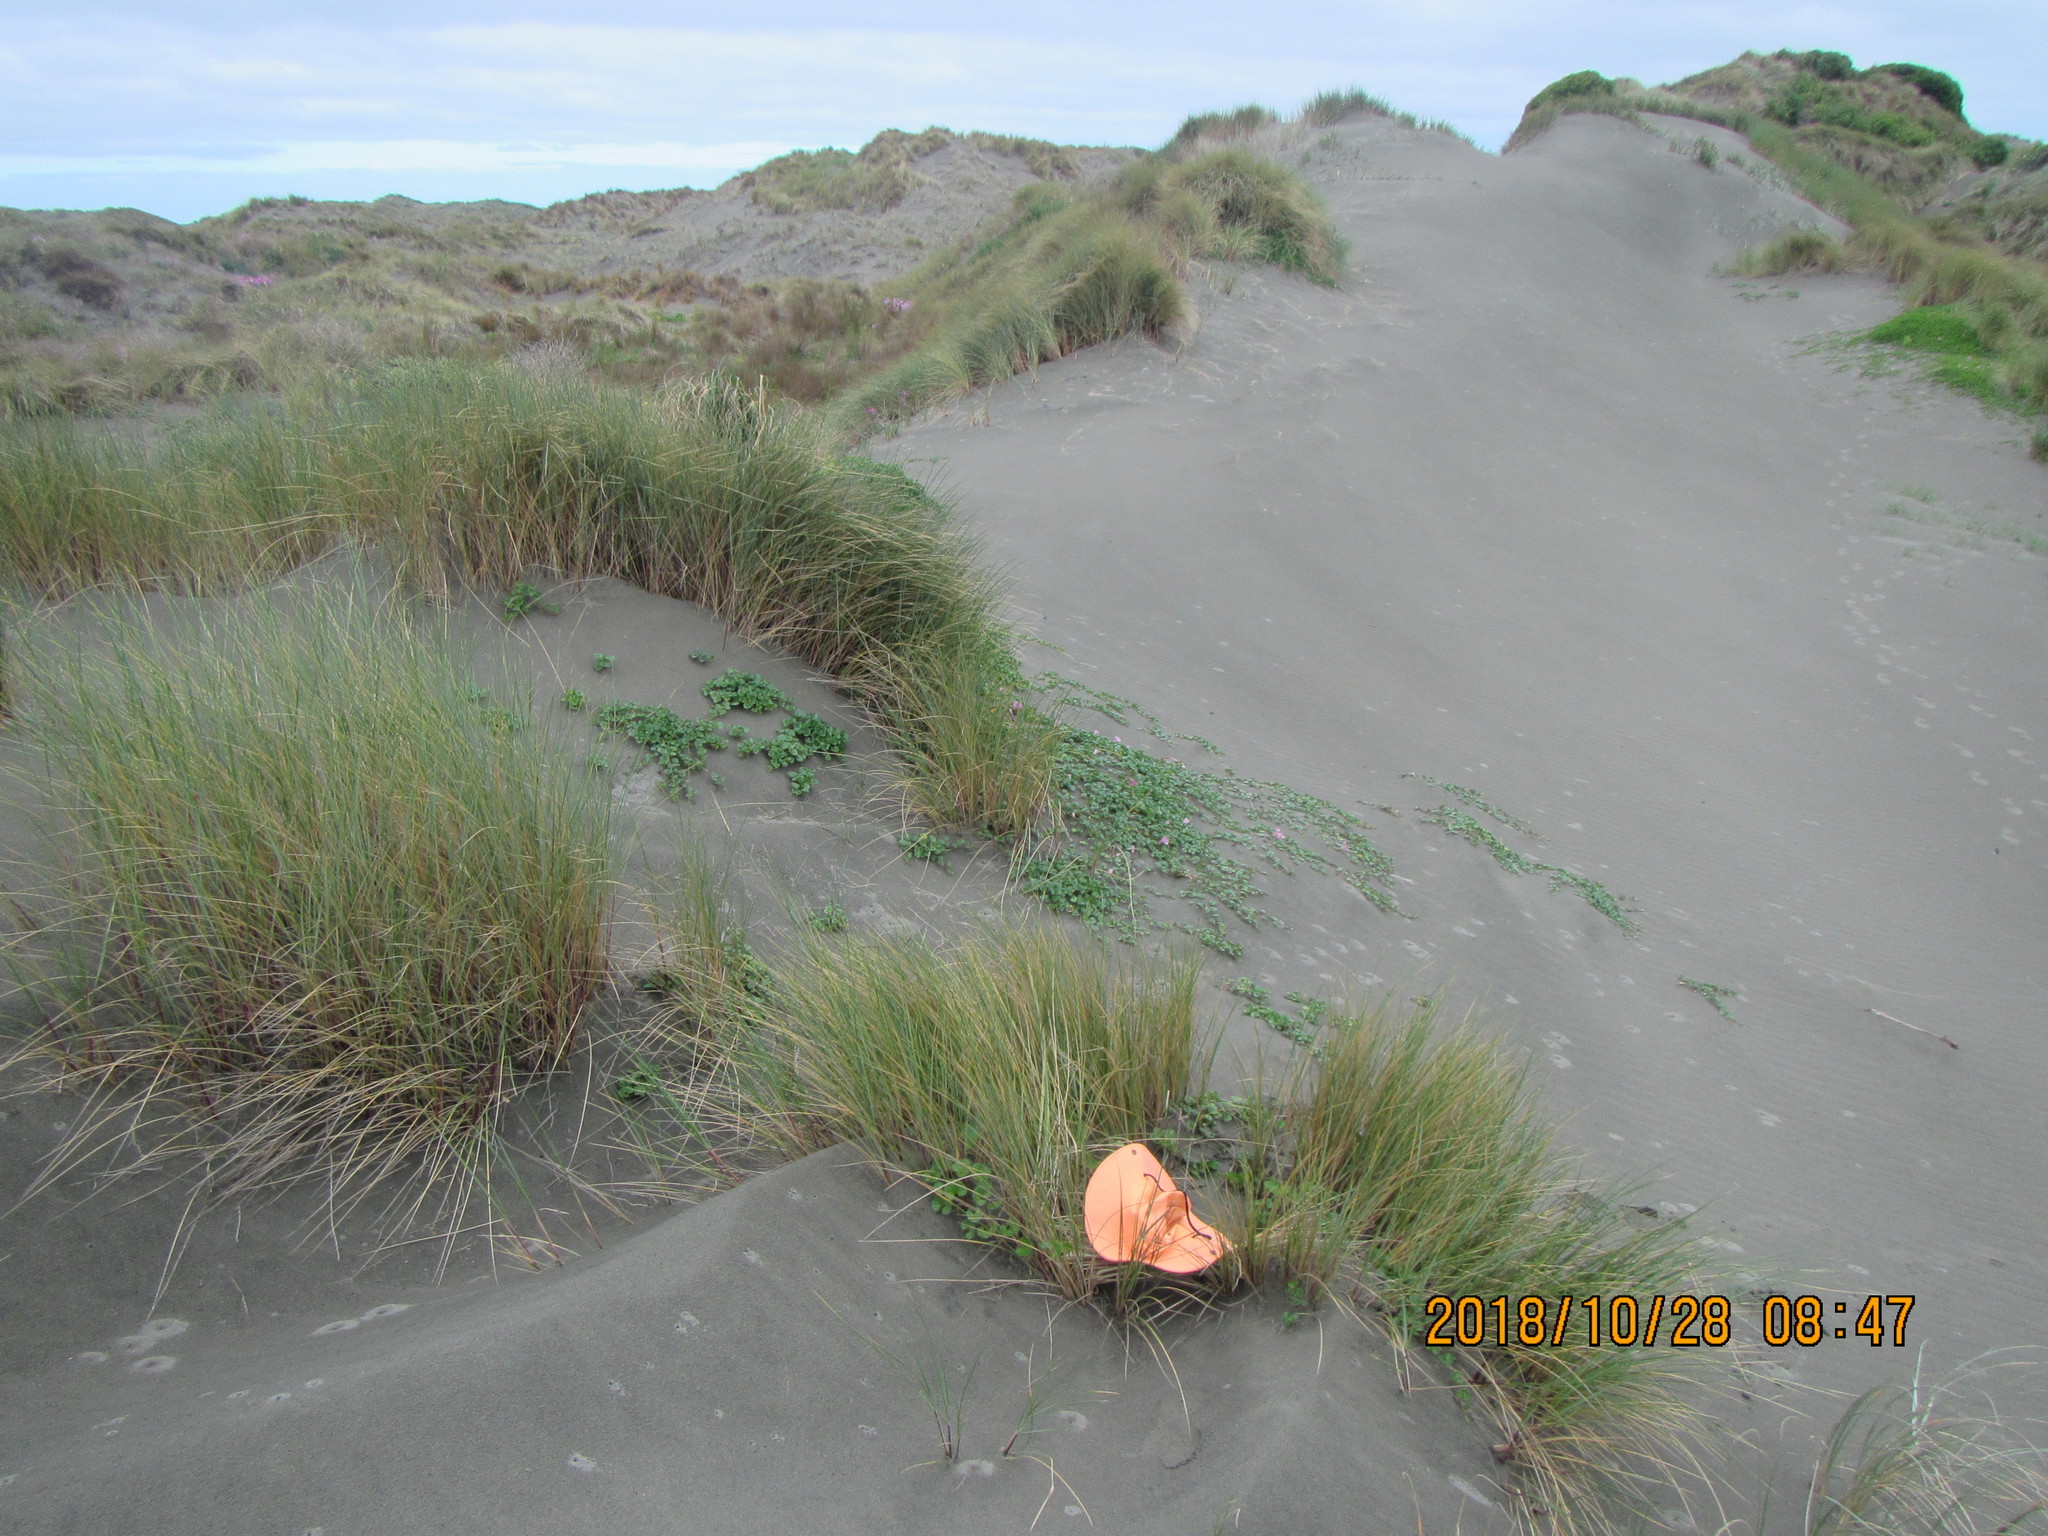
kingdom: Animalia
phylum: Arthropoda
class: Arachnida
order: Araneae
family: Theridiidae
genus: Latrodectus
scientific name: Latrodectus katipo
